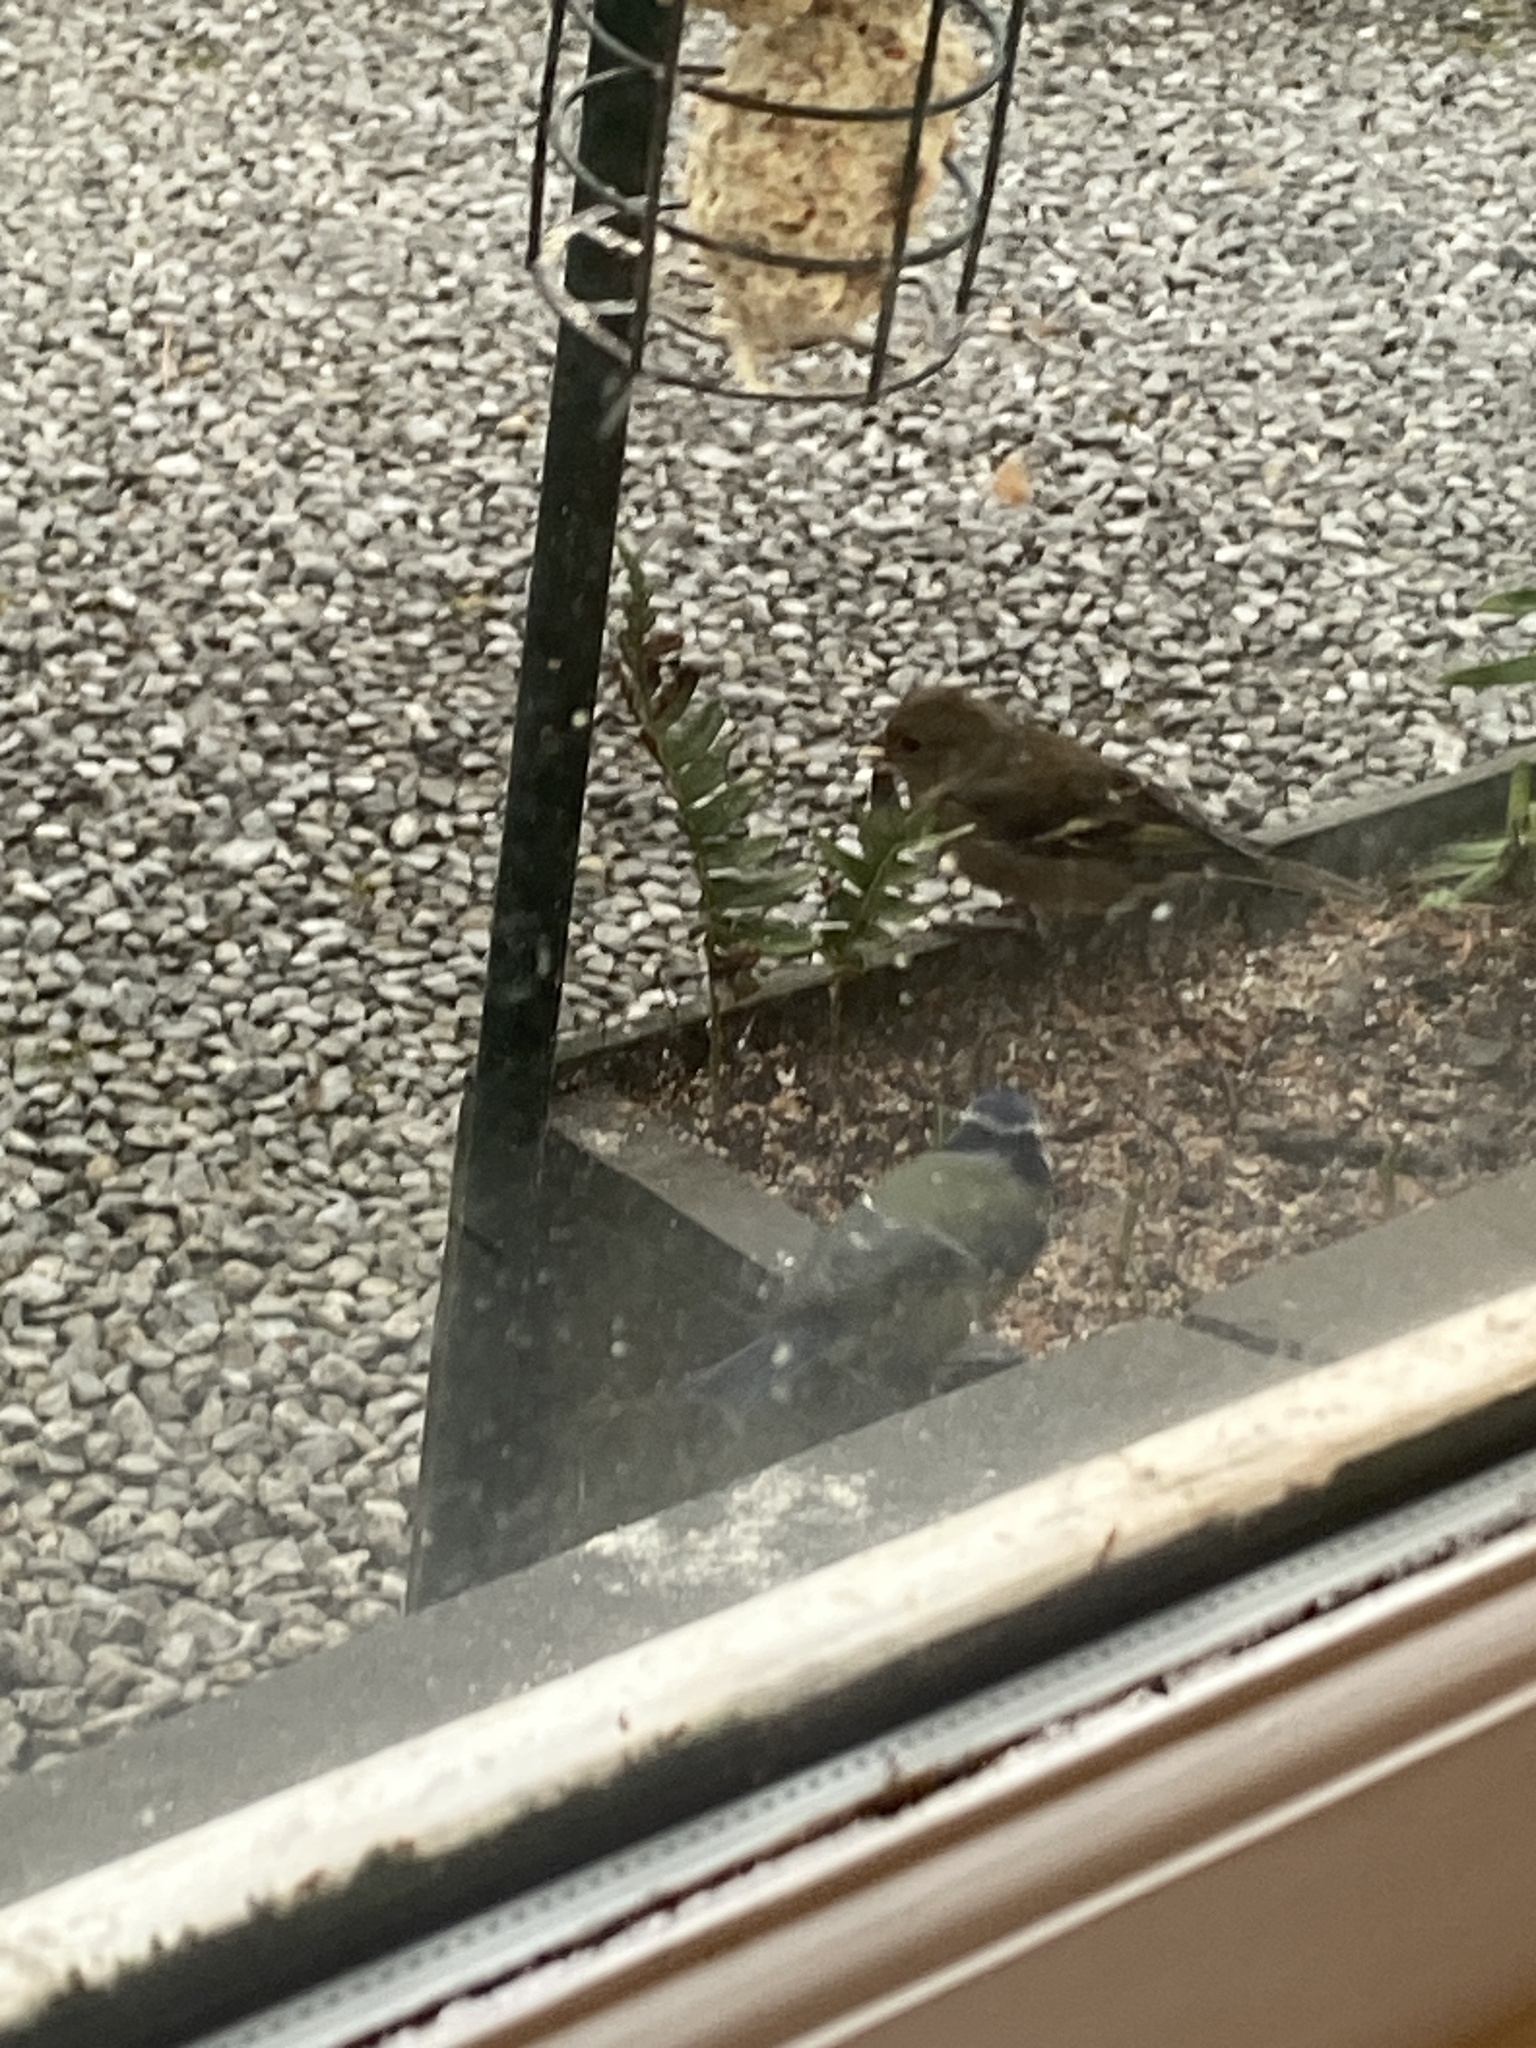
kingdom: Animalia
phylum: Chordata
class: Aves
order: Passeriformes
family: Fringillidae
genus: Fringilla
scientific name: Fringilla coelebs
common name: Common chaffinch
